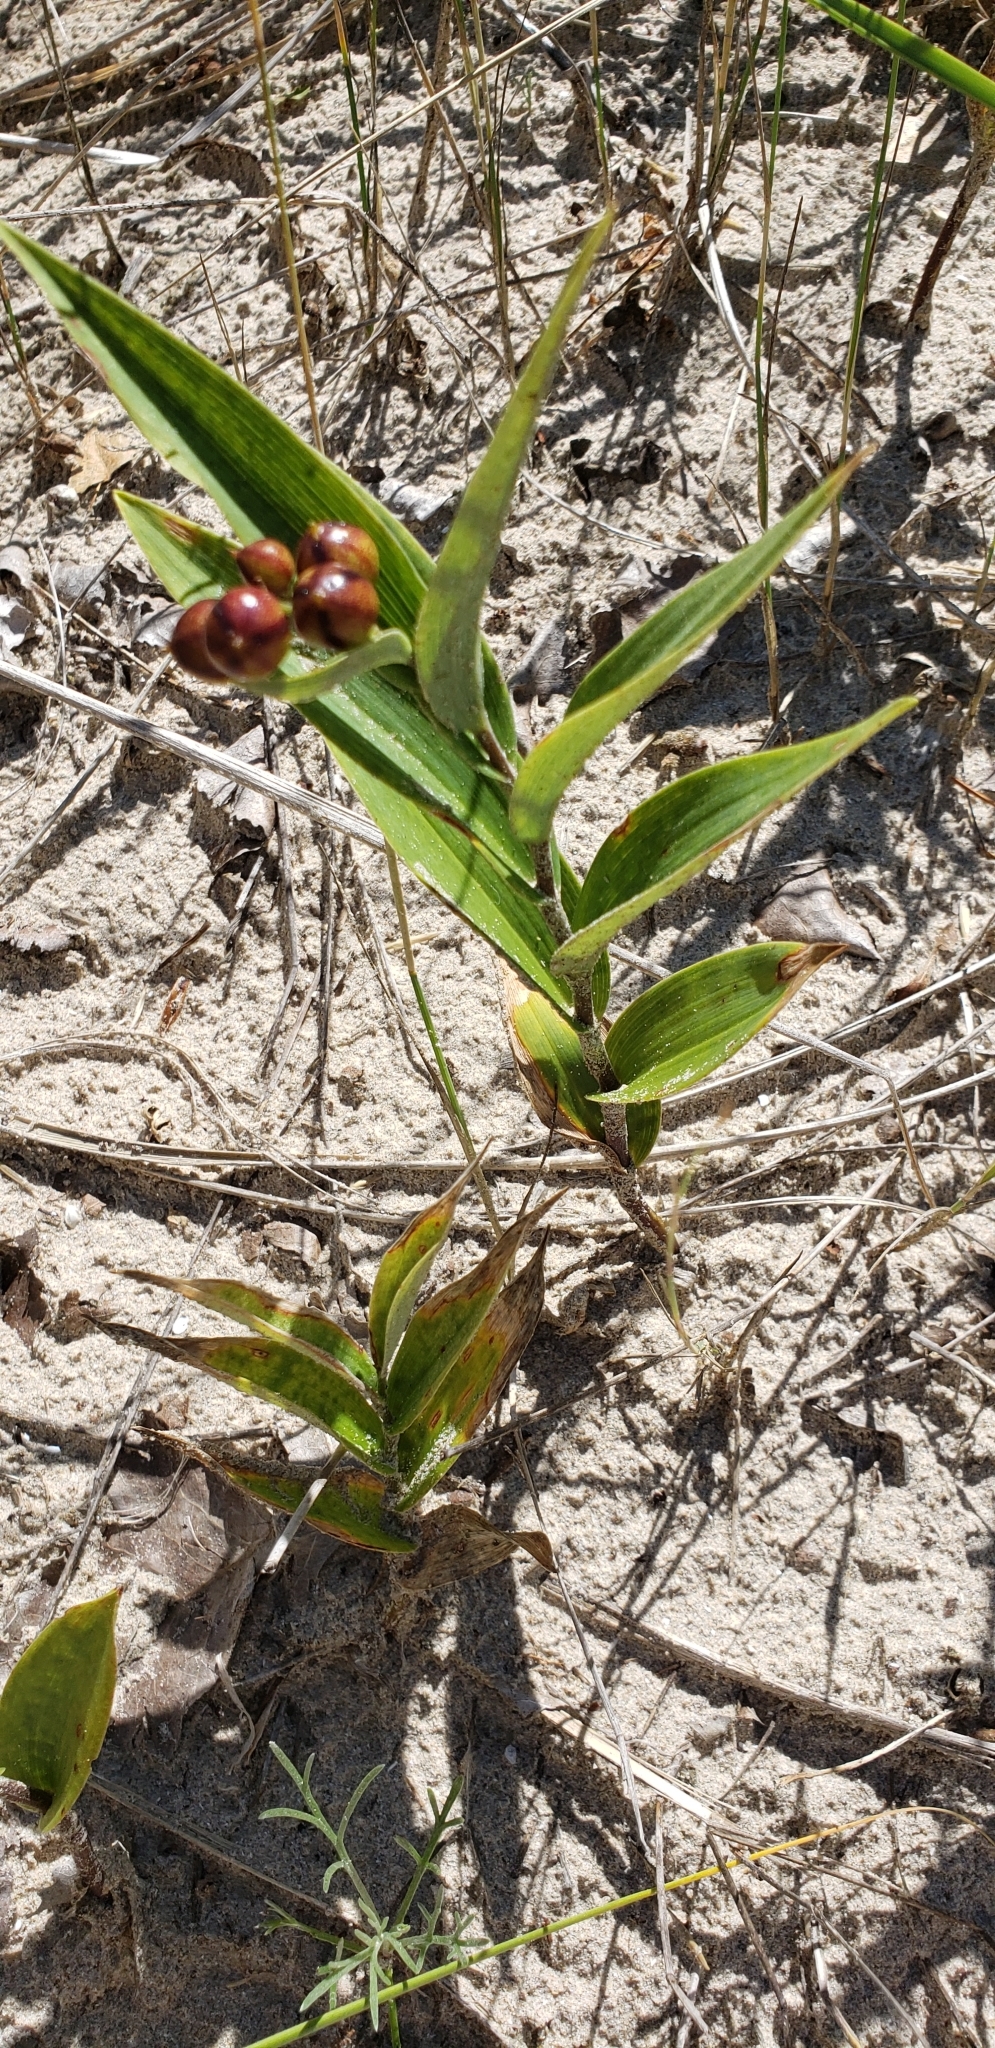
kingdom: Plantae
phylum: Tracheophyta
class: Liliopsida
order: Asparagales
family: Asparagaceae
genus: Maianthemum
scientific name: Maianthemum stellatum
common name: Little false solomon's seal
